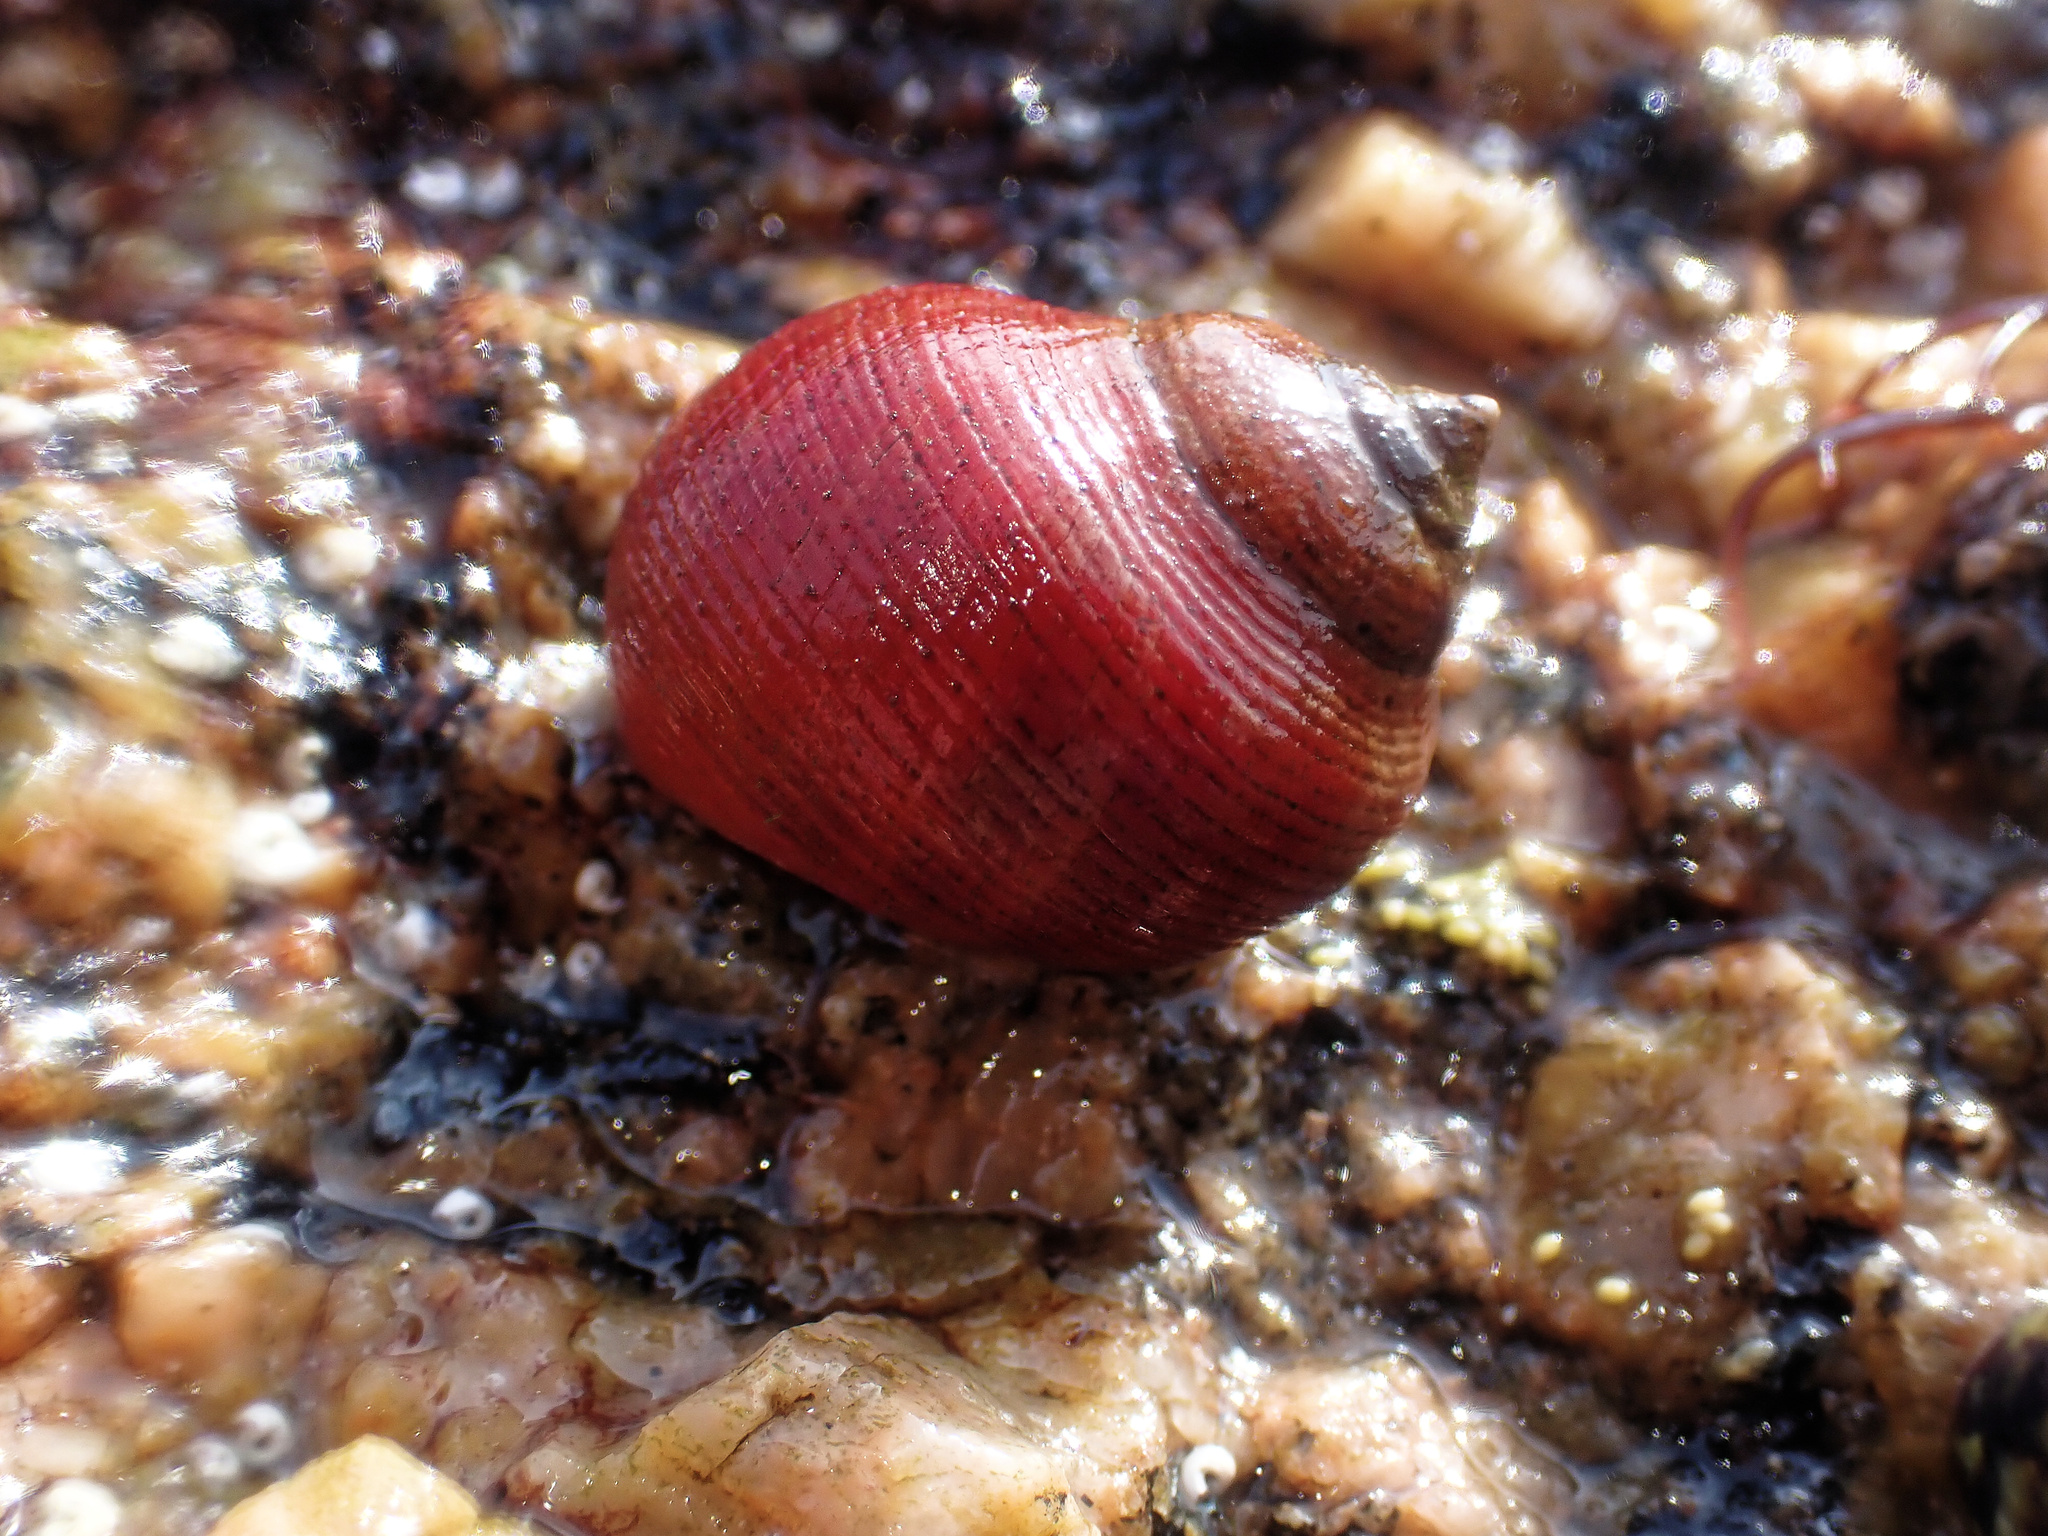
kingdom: Animalia
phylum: Mollusca
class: Gastropoda
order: Littorinimorpha
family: Littorinidae
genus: Littorina
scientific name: Littorina saxatilis
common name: Black-lined periwinkle
